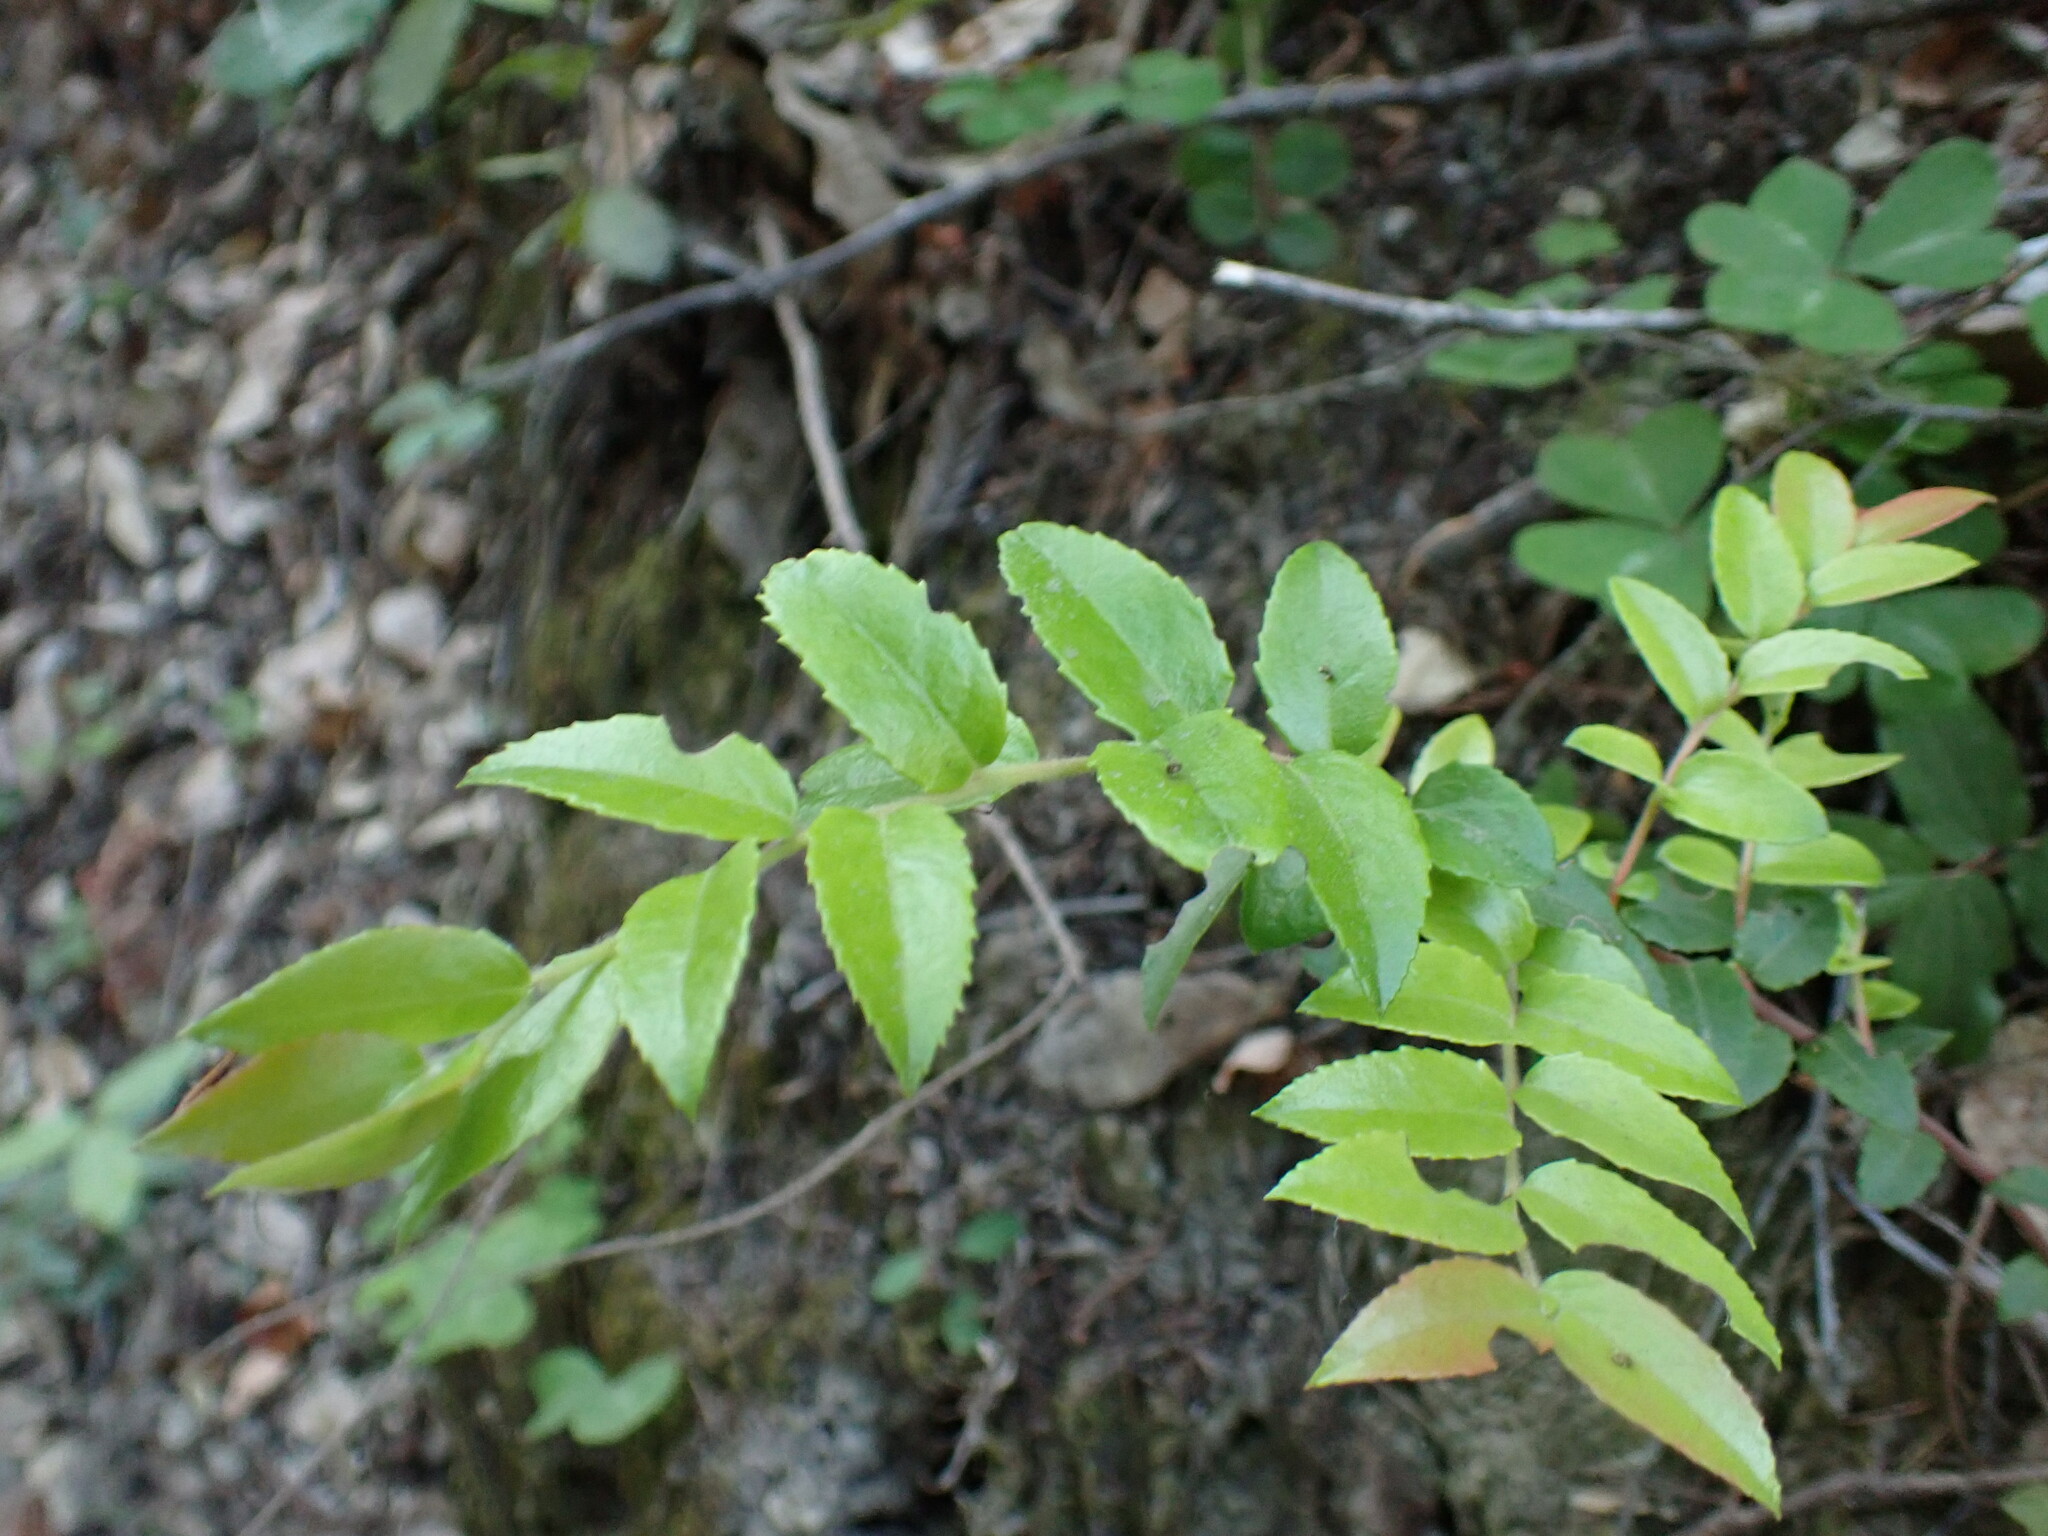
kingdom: Plantae
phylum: Tracheophyta
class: Magnoliopsida
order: Ericales
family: Ericaceae
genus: Vaccinium
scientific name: Vaccinium ovatum
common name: California-huckleberry
